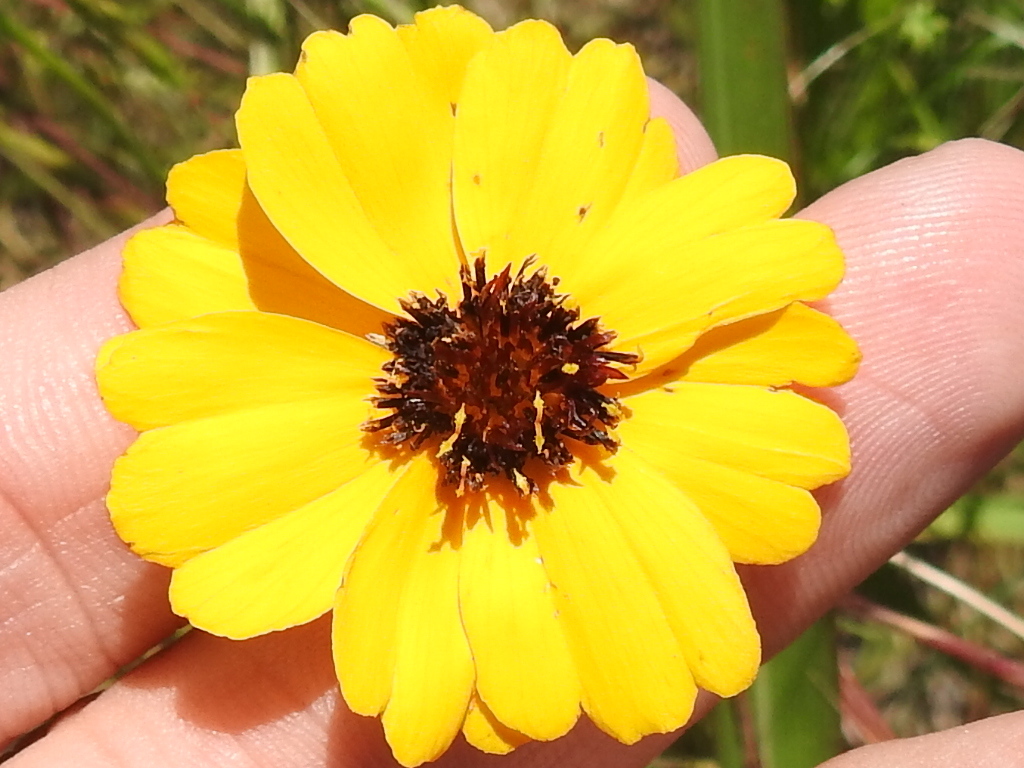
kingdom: Plantae
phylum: Tracheophyta
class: Magnoliopsida
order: Asterales
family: Asteraceae
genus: Thelesperma
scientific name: Thelesperma filifolium
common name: Stiff greenthread
